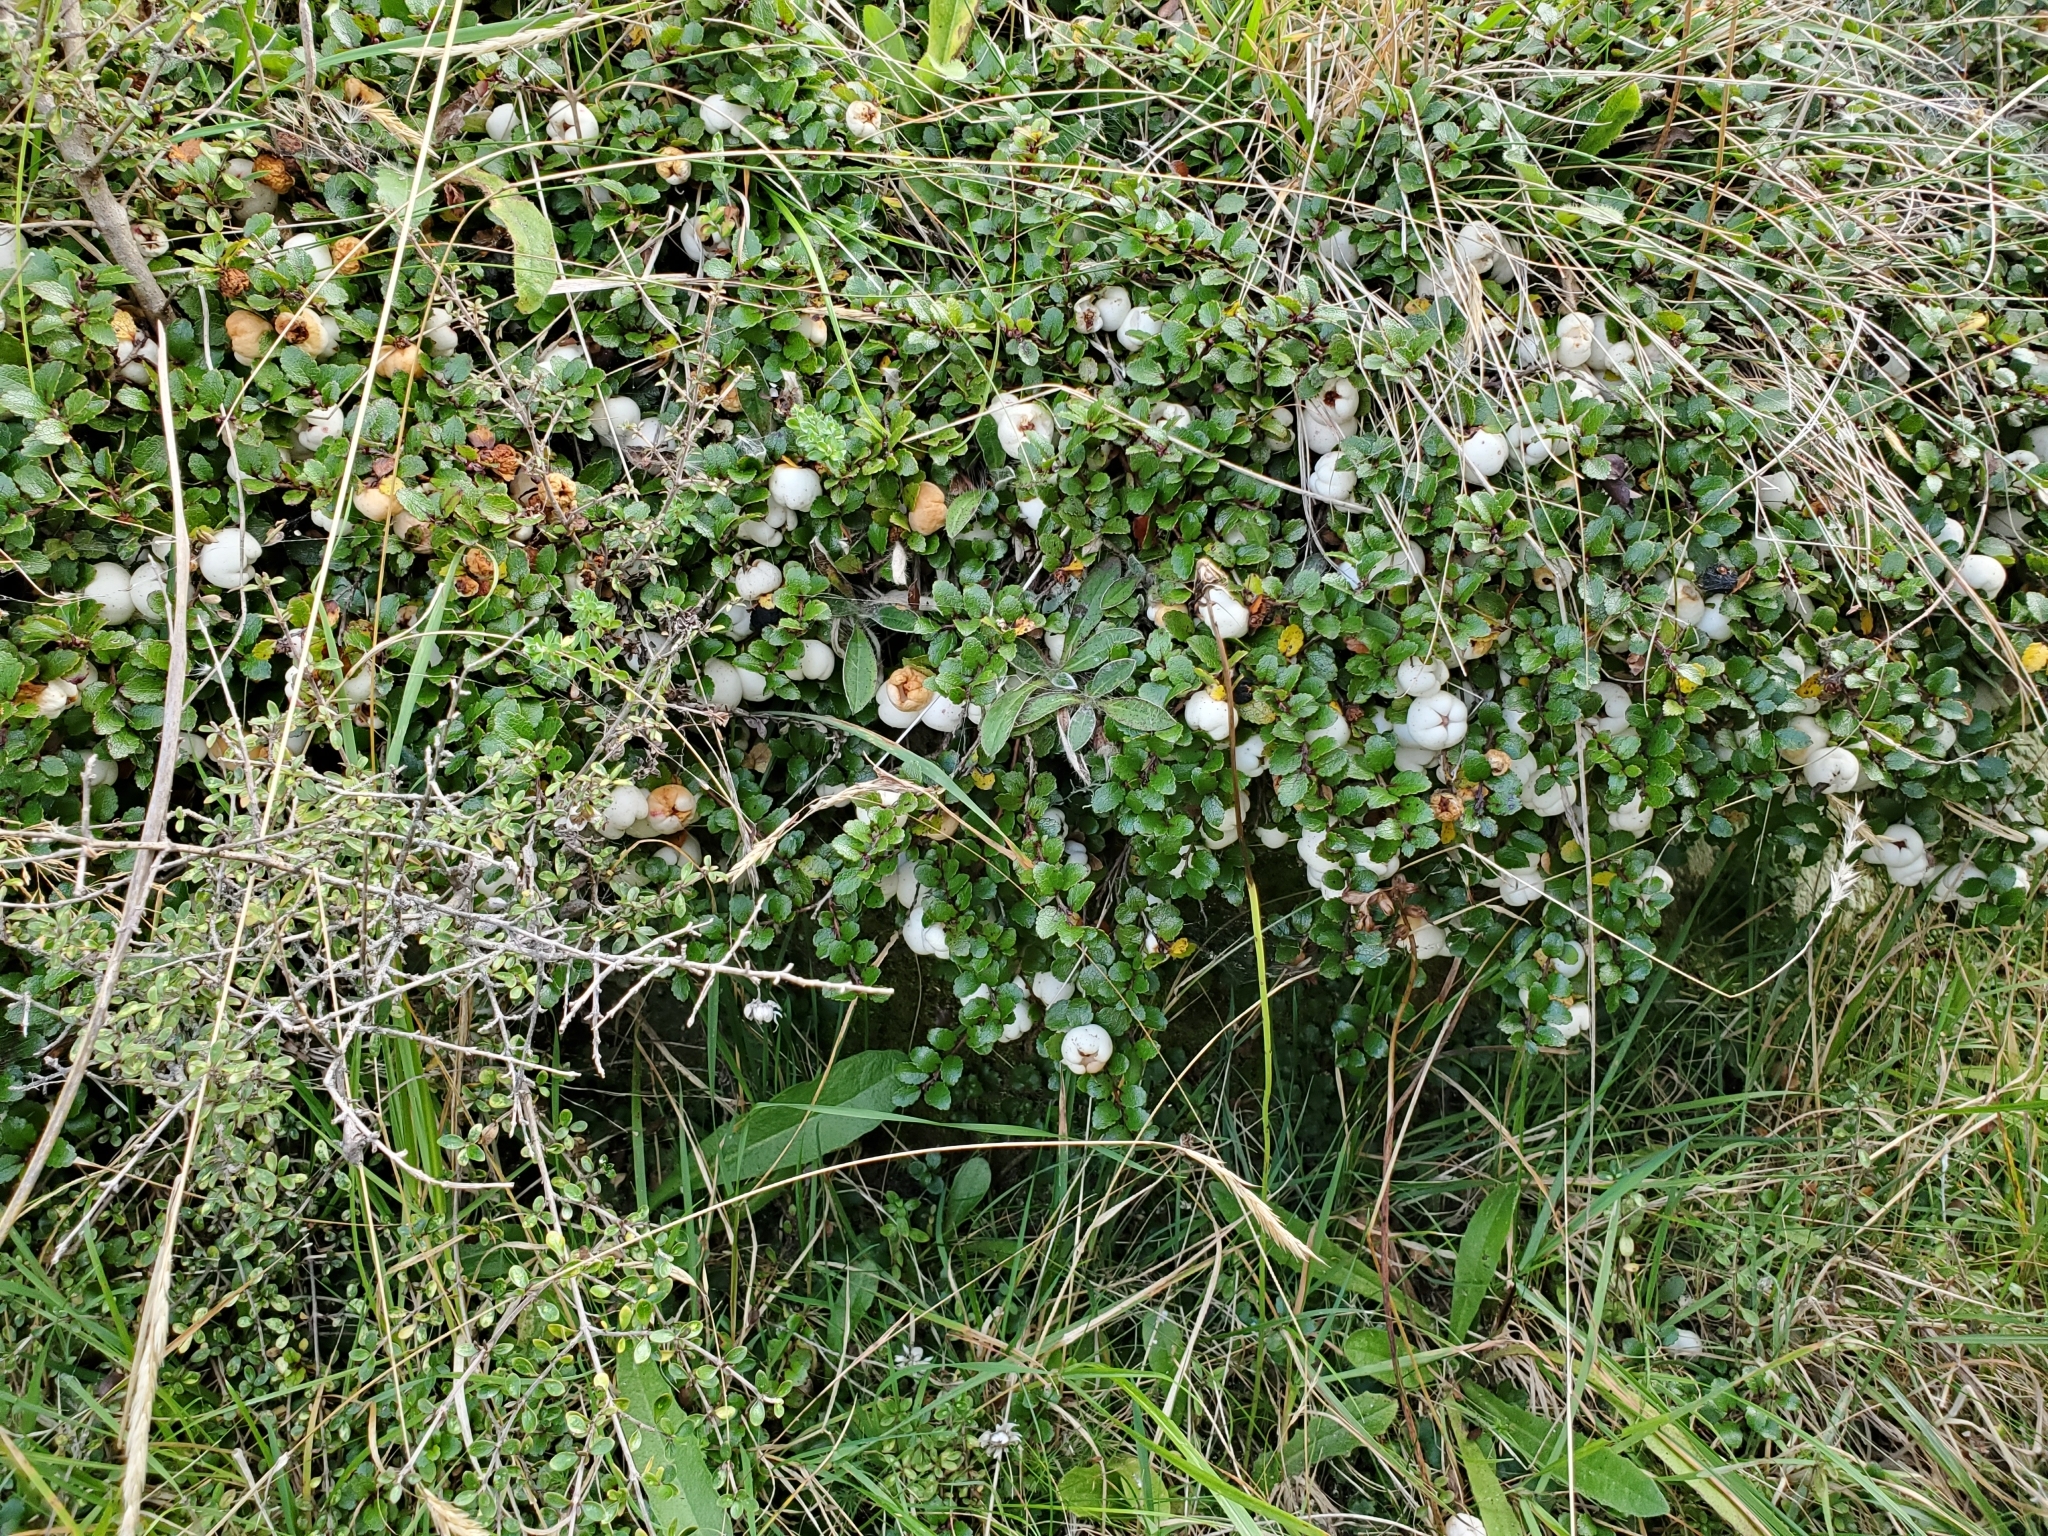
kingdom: Plantae
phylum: Tracheophyta
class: Magnoliopsida
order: Ericales
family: Ericaceae
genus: Gaultheria
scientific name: Gaultheria depressa
